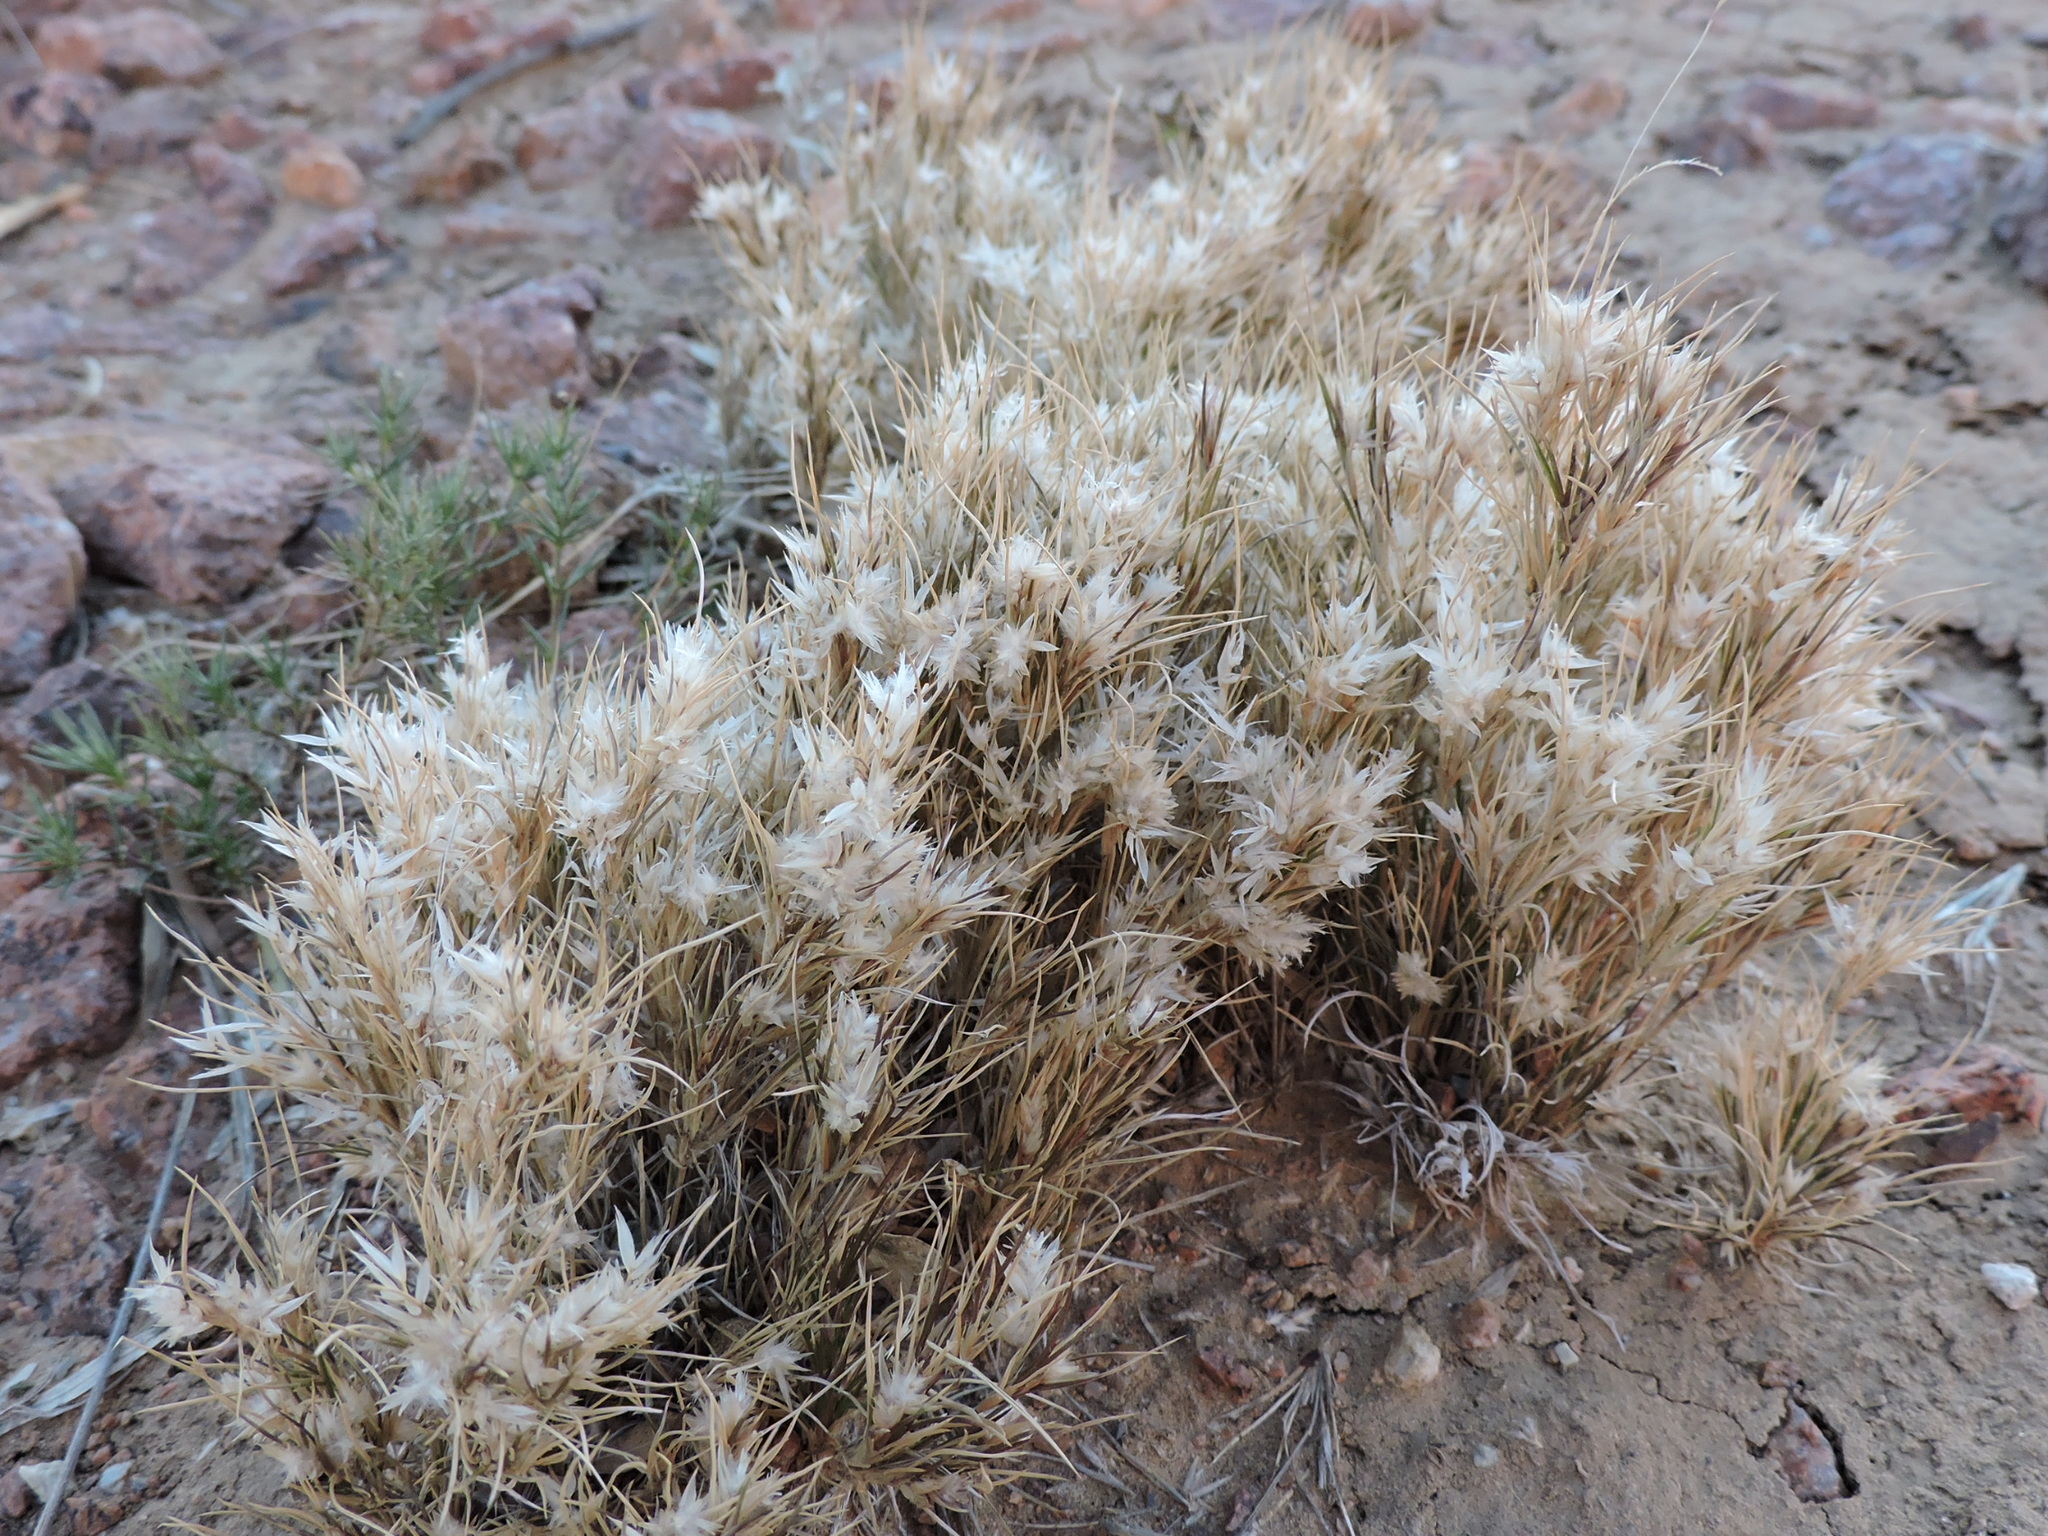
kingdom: Plantae
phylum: Tracheophyta
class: Liliopsida
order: Poales
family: Poaceae
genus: Dasyochloa
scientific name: Dasyochloa pulchella
